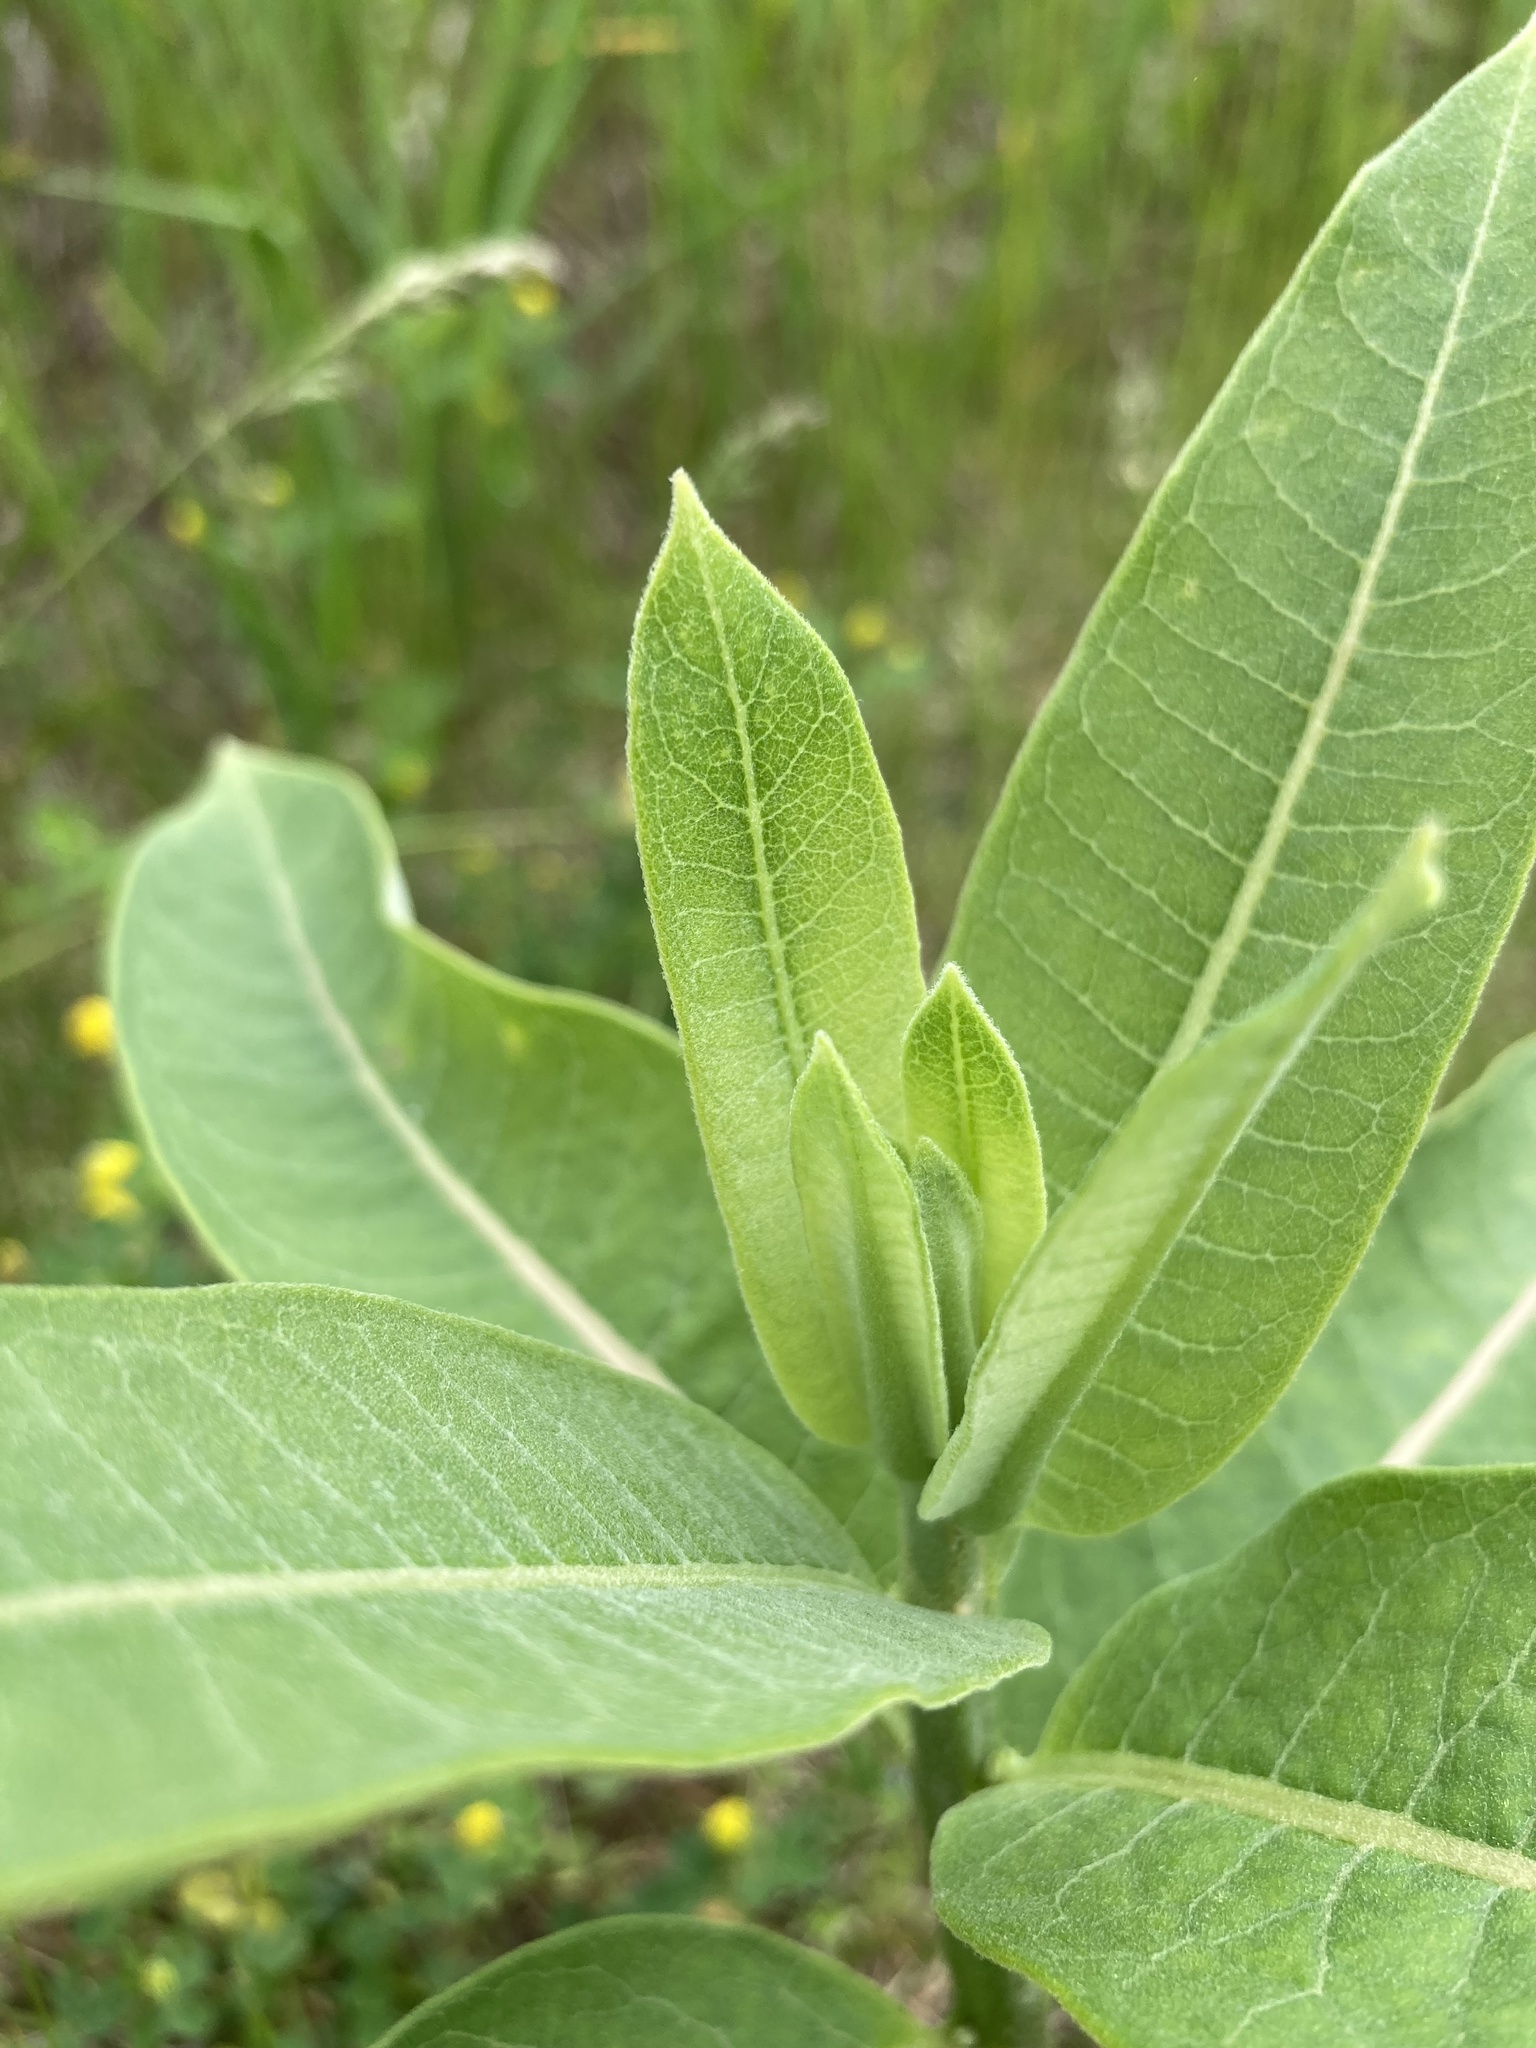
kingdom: Plantae
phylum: Tracheophyta
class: Magnoliopsida
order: Gentianales
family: Apocynaceae
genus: Asclepias
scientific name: Asclepias syriaca
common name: Common milkweed
